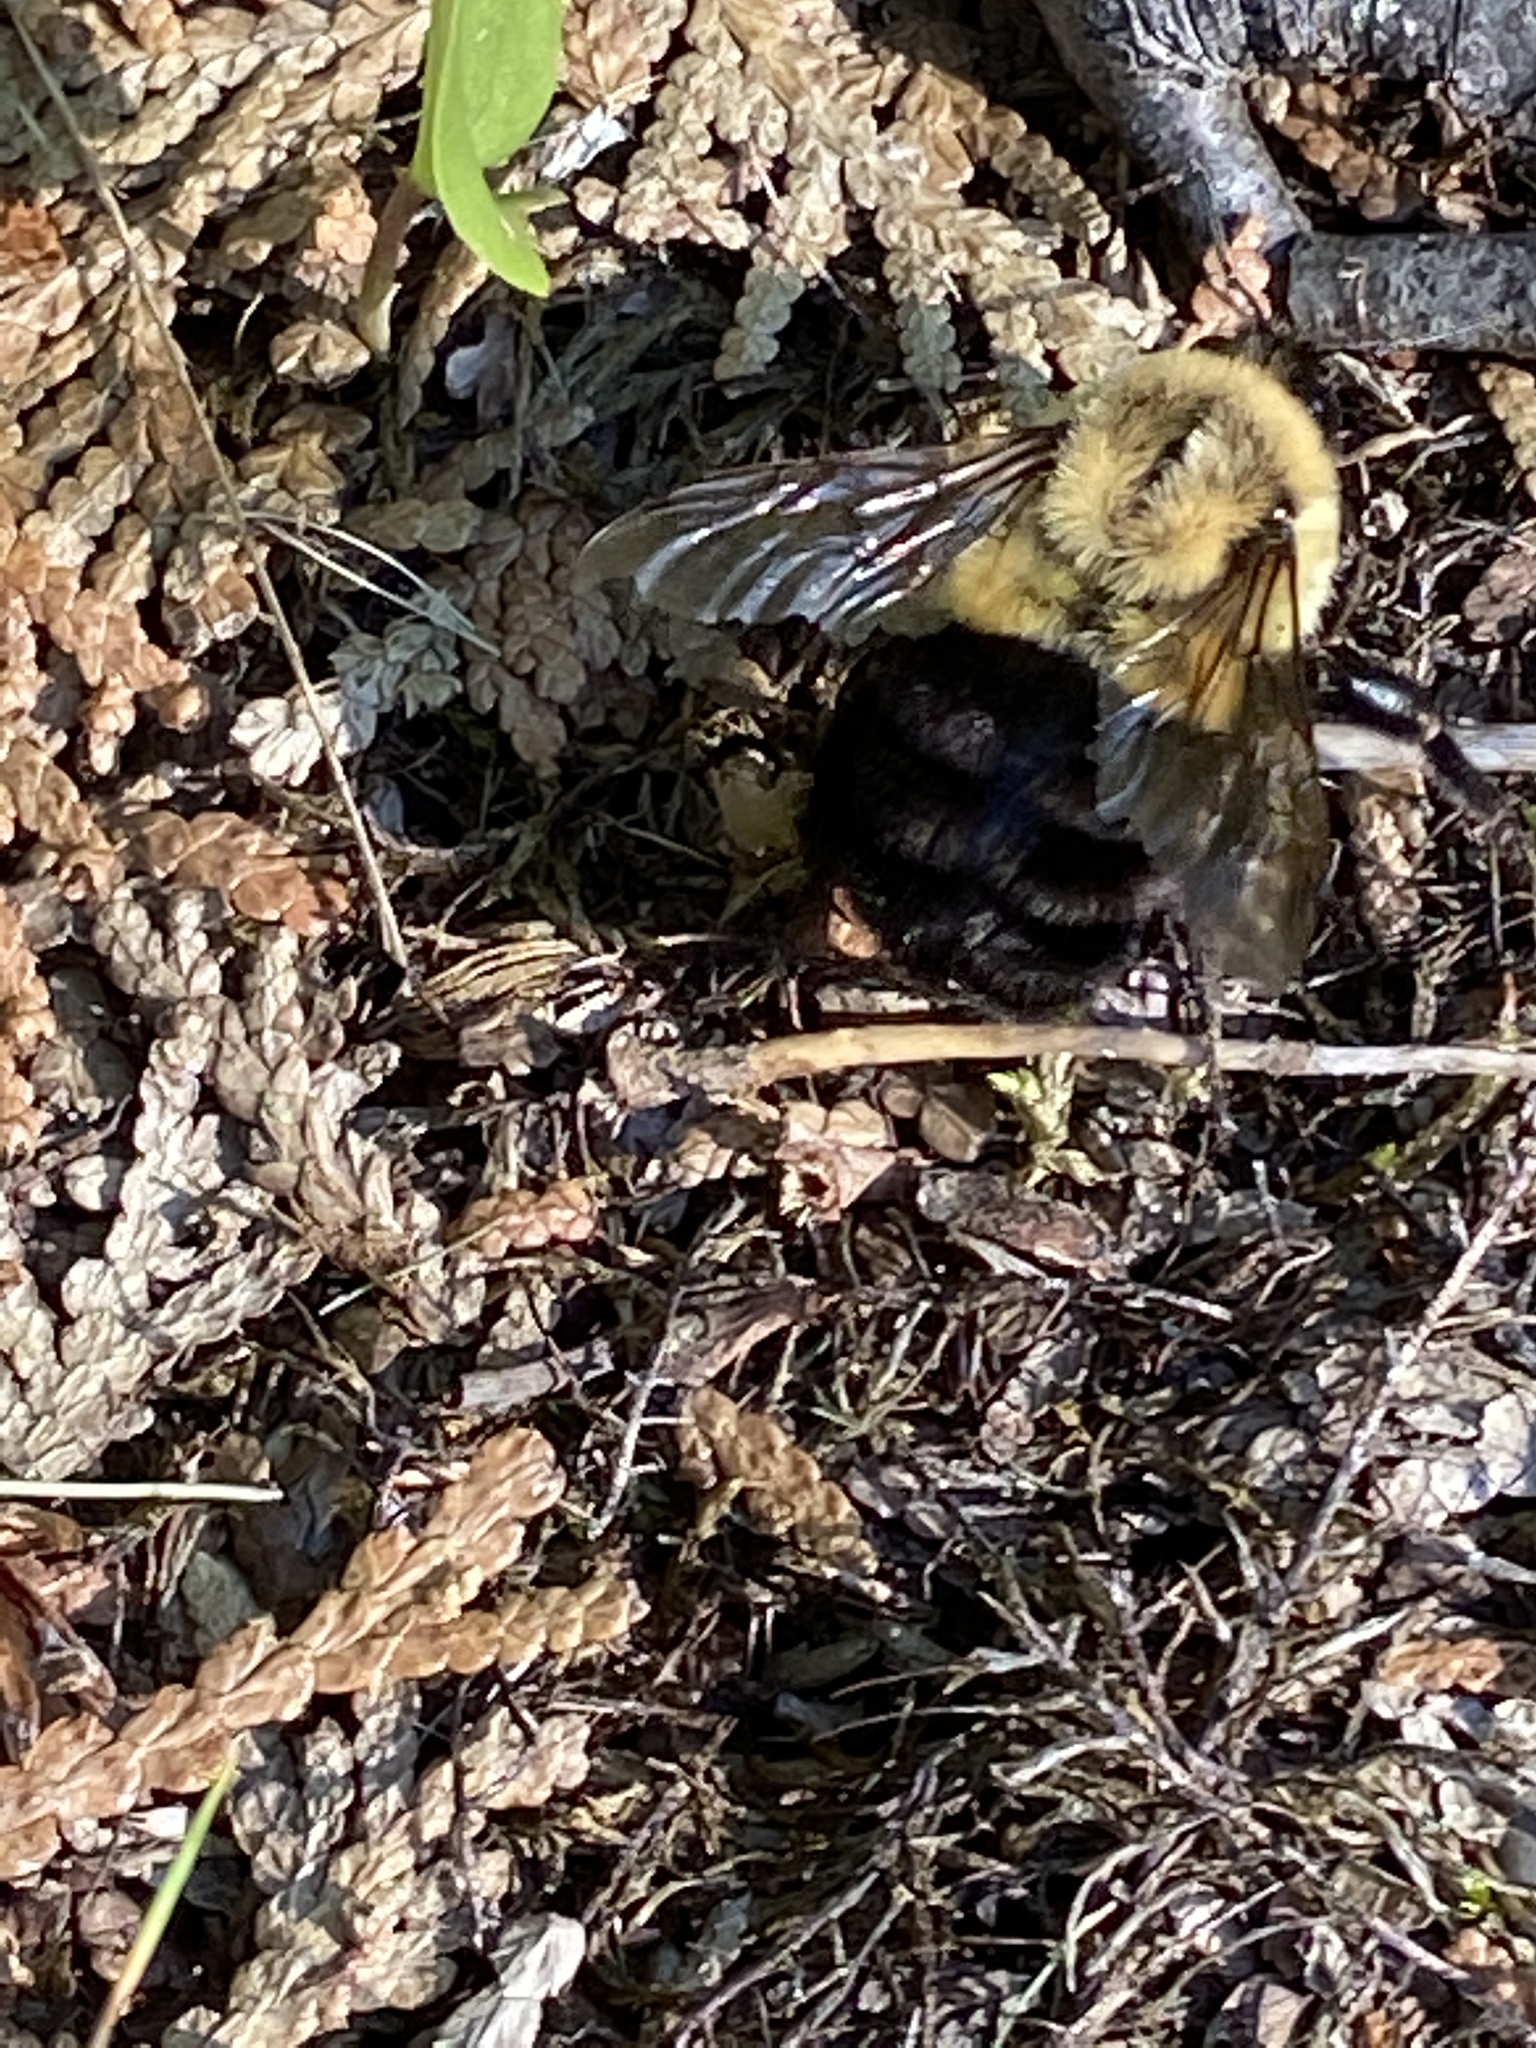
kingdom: Animalia
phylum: Arthropoda
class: Insecta
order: Hymenoptera
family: Apidae
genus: Bombus
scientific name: Bombus impatiens
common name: Common eastern bumble bee
